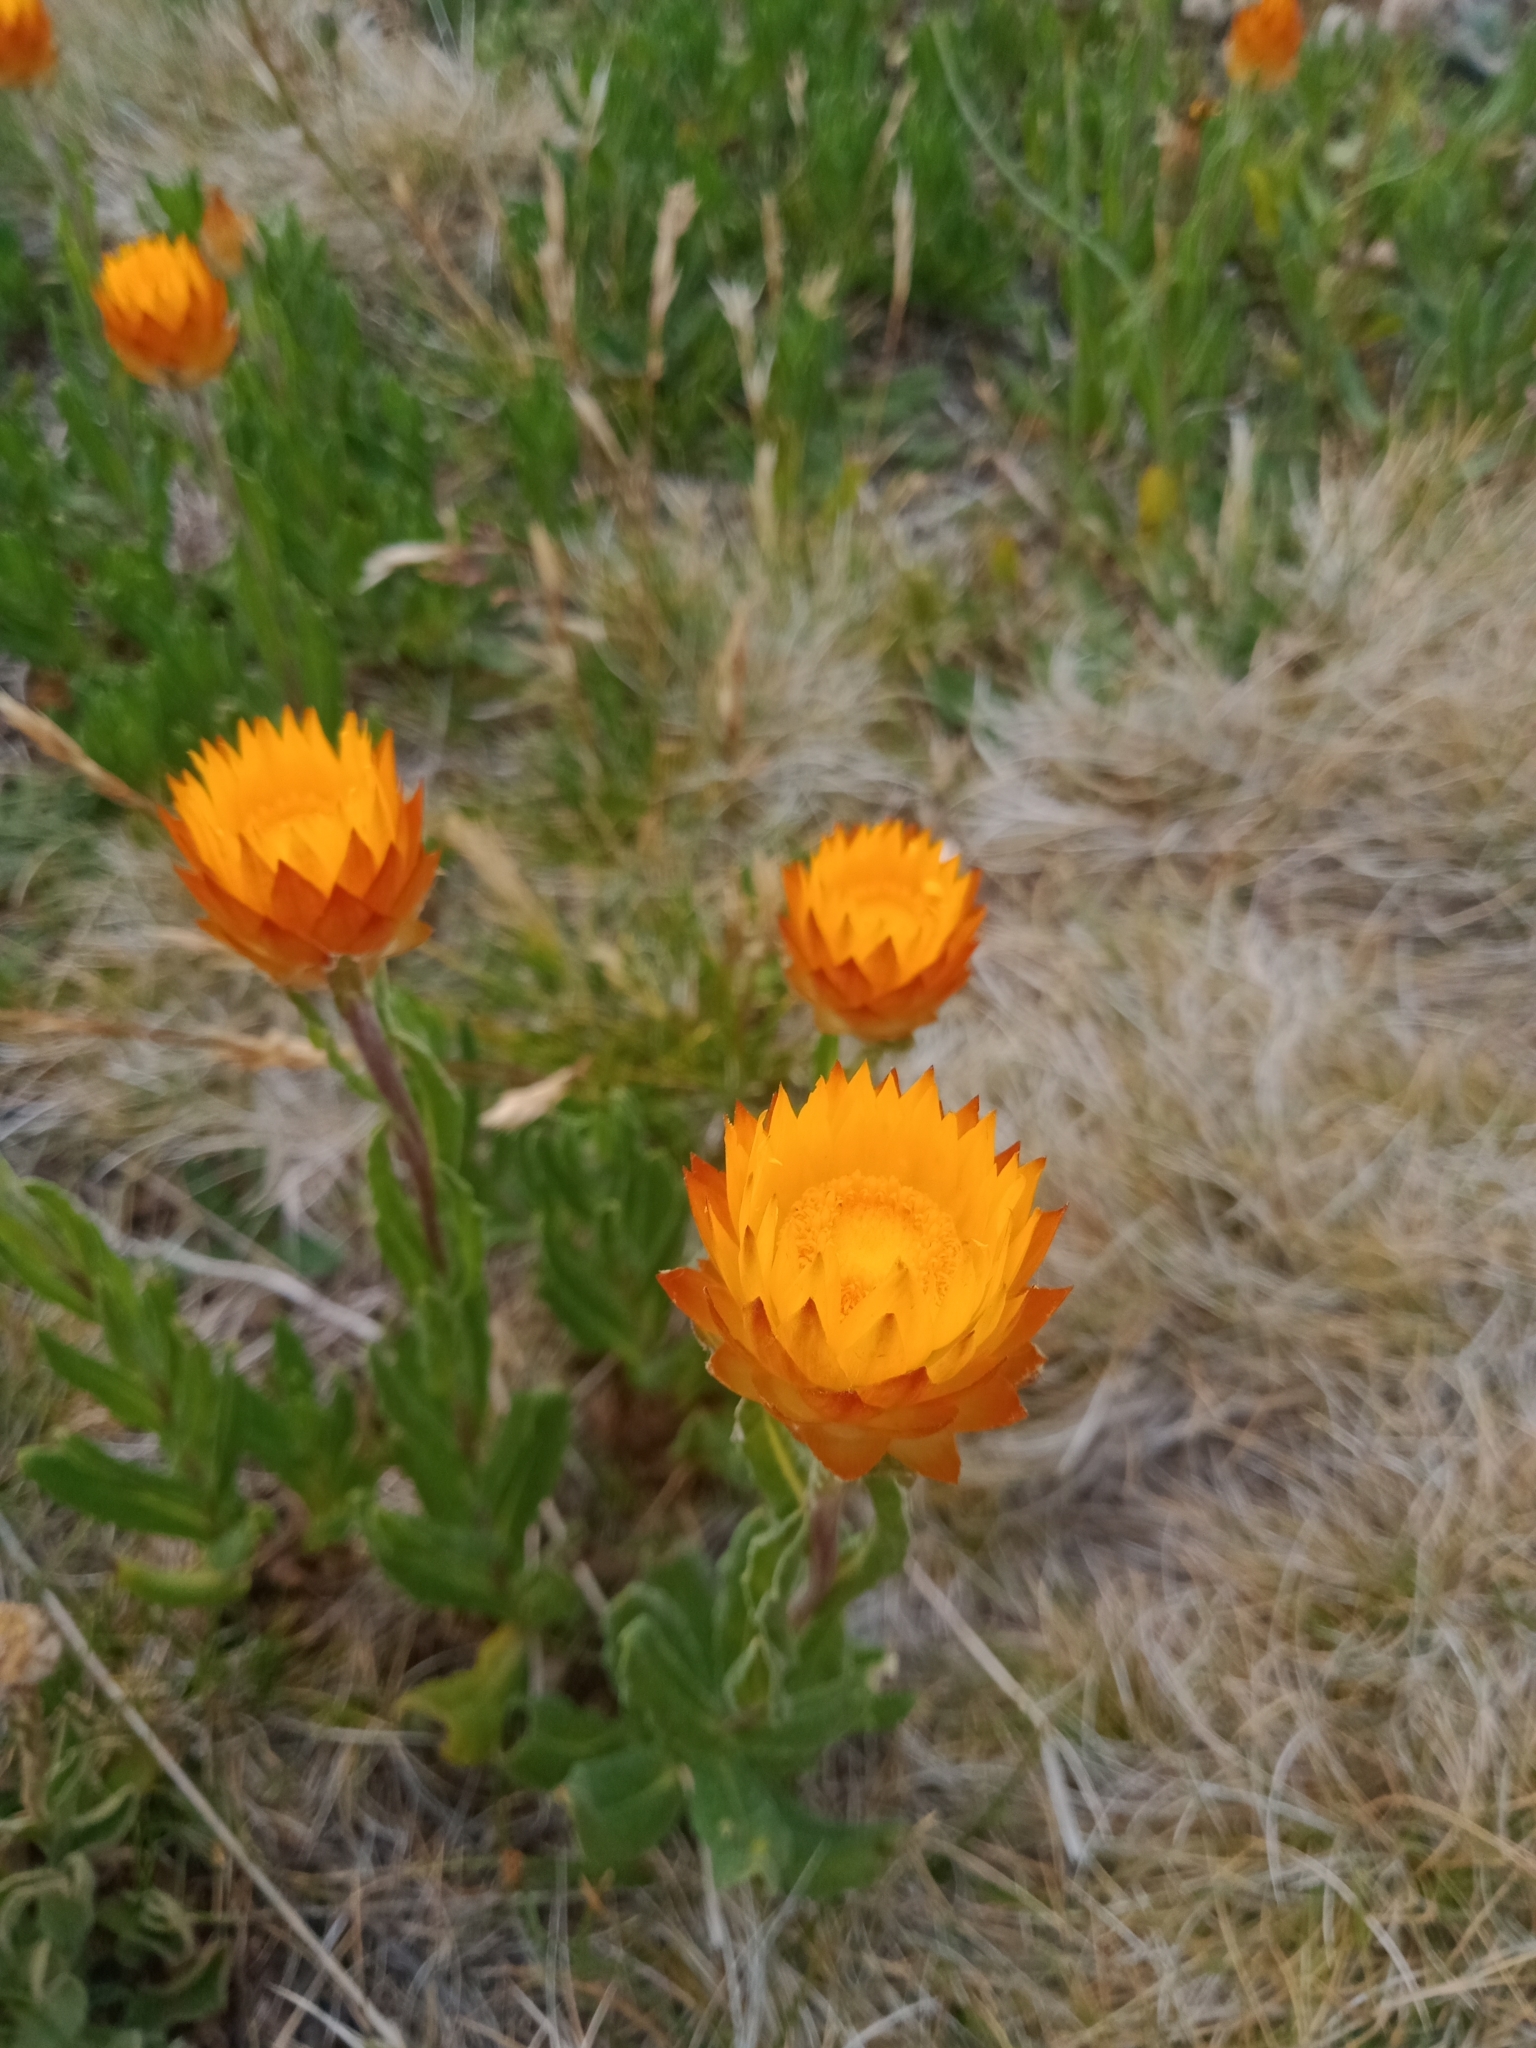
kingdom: Plantae
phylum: Tracheophyta
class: Magnoliopsida
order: Asterales
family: Asteraceae
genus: Xerochrysum
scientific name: Xerochrysum subundulatum
